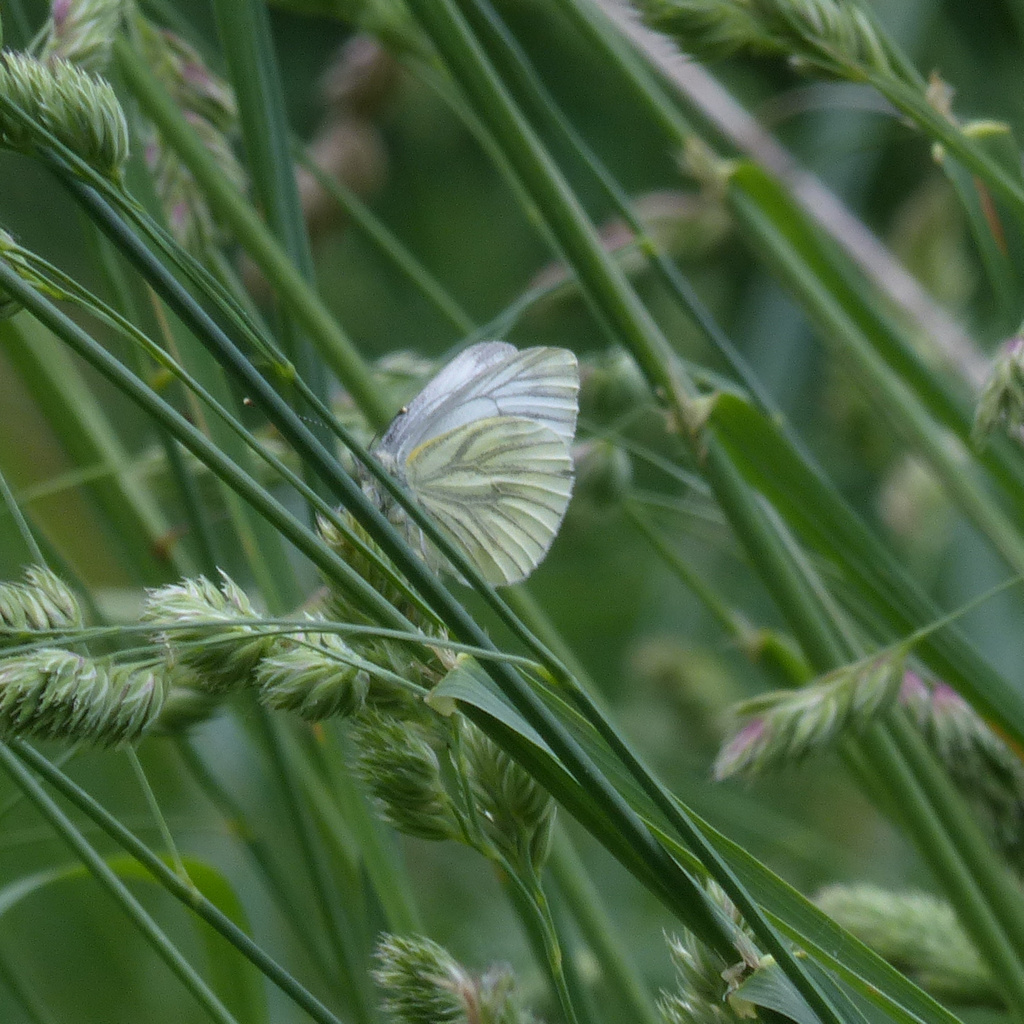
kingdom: Animalia
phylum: Arthropoda
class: Insecta
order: Lepidoptera
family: Pieridae
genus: Pieris
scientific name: Pieris napi
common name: Green-veined white
